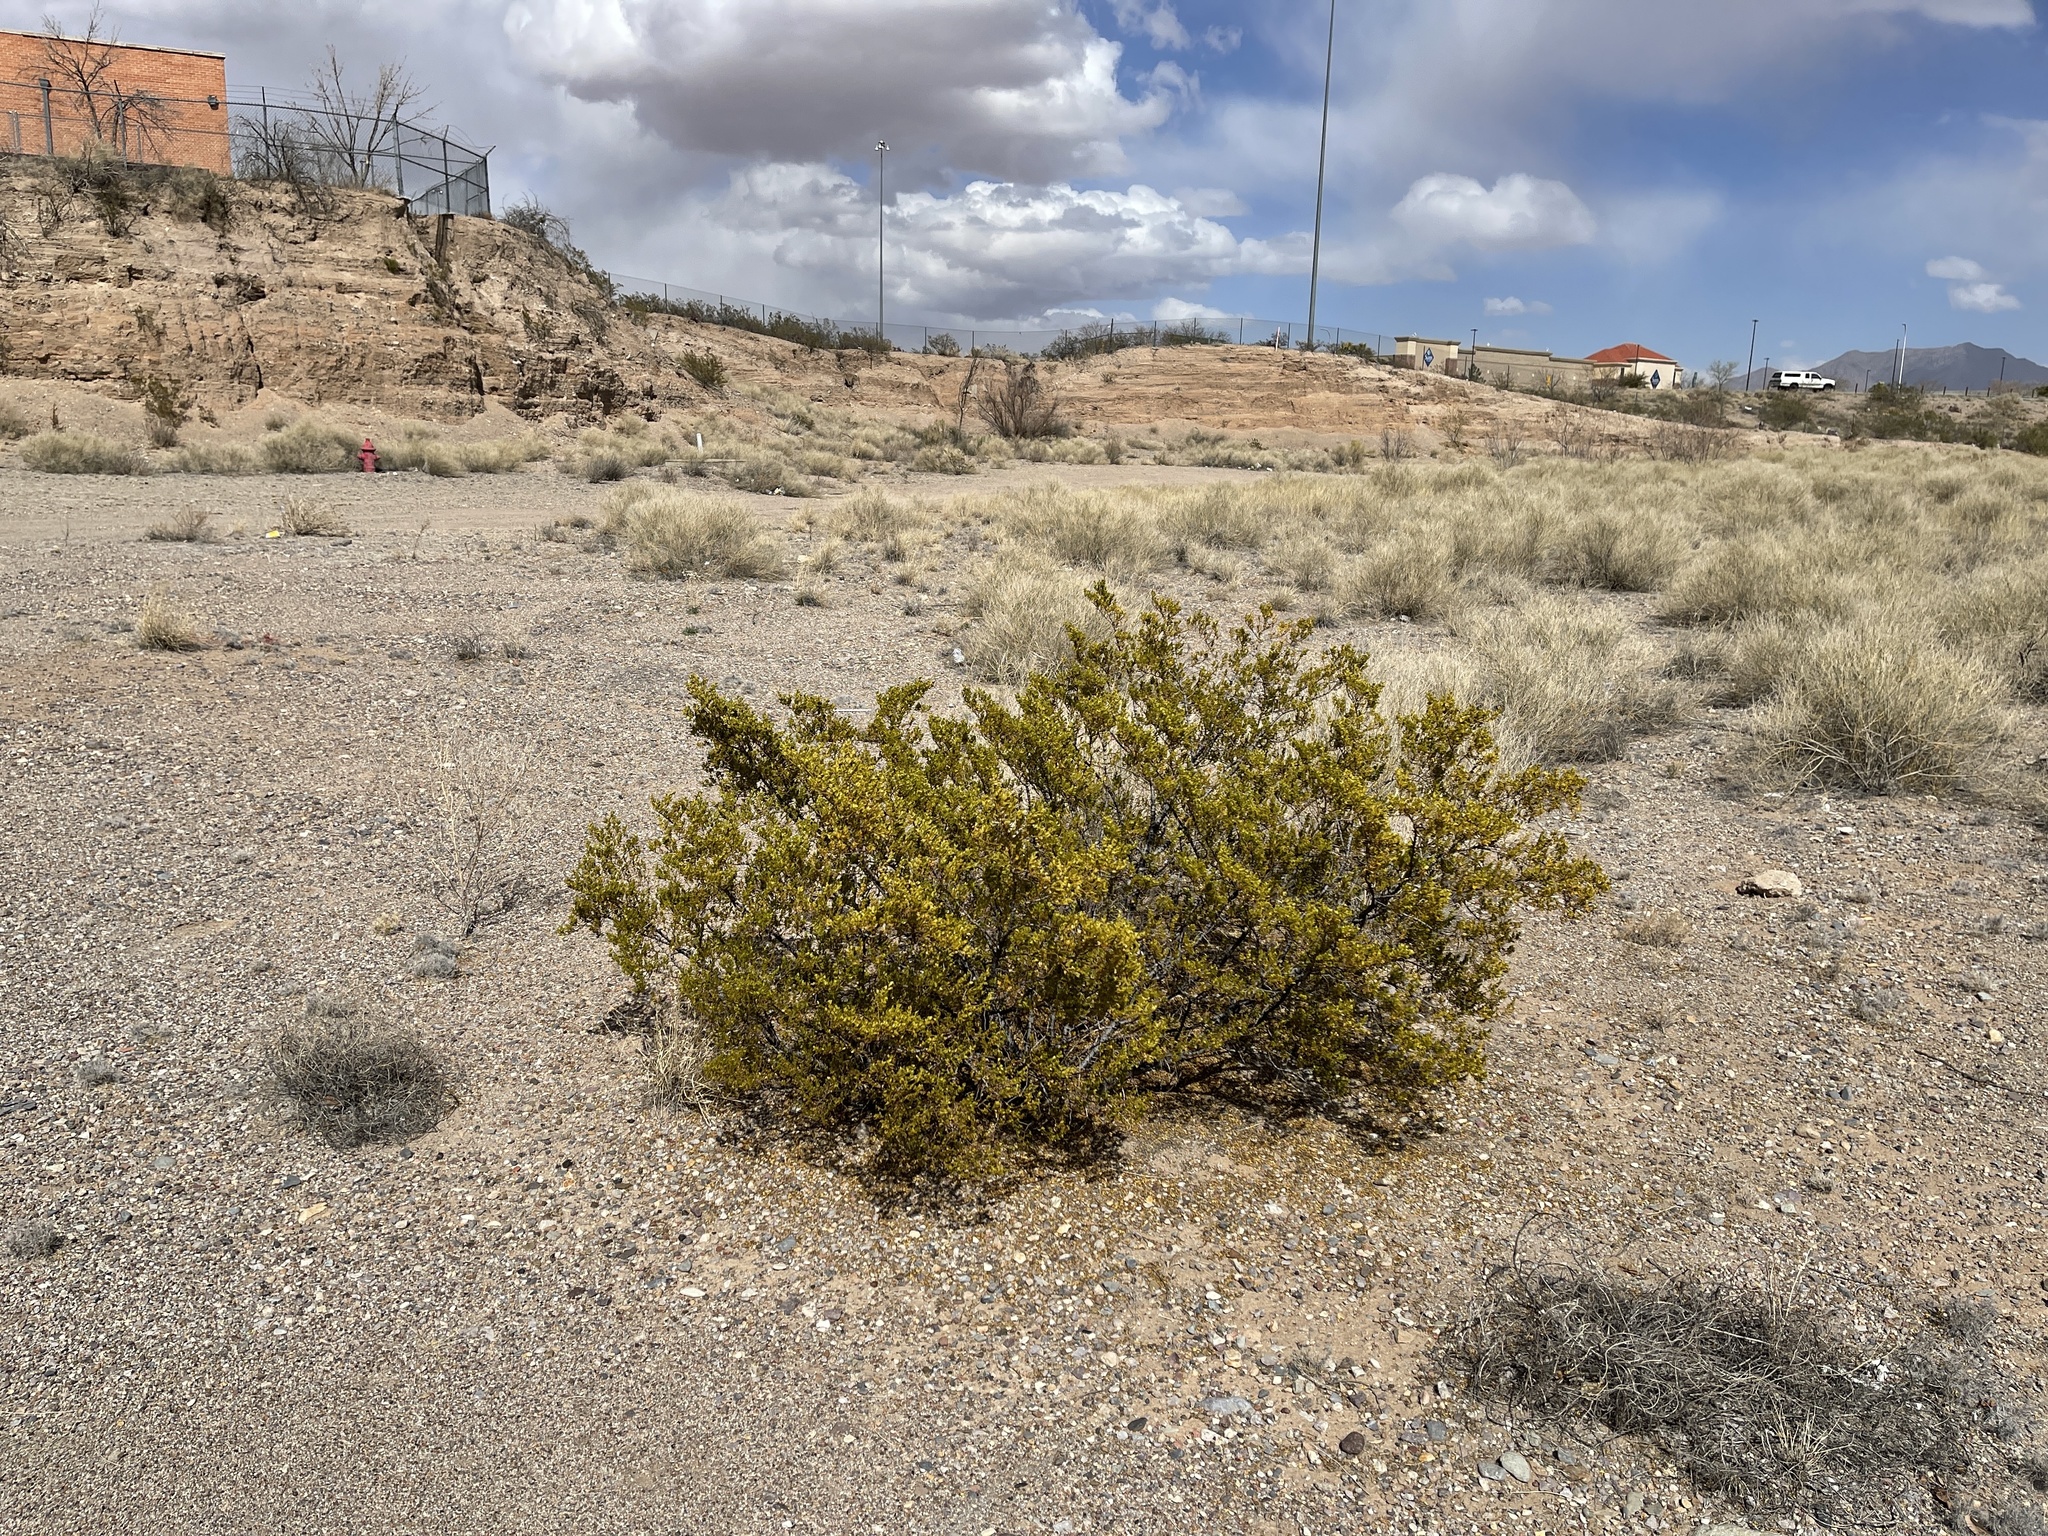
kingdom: Plantae
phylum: Tracheophyta
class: Magnoliopsida
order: Zygophyllales
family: Zygophyllaceae
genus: Larrea
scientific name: Larrea tridentata
